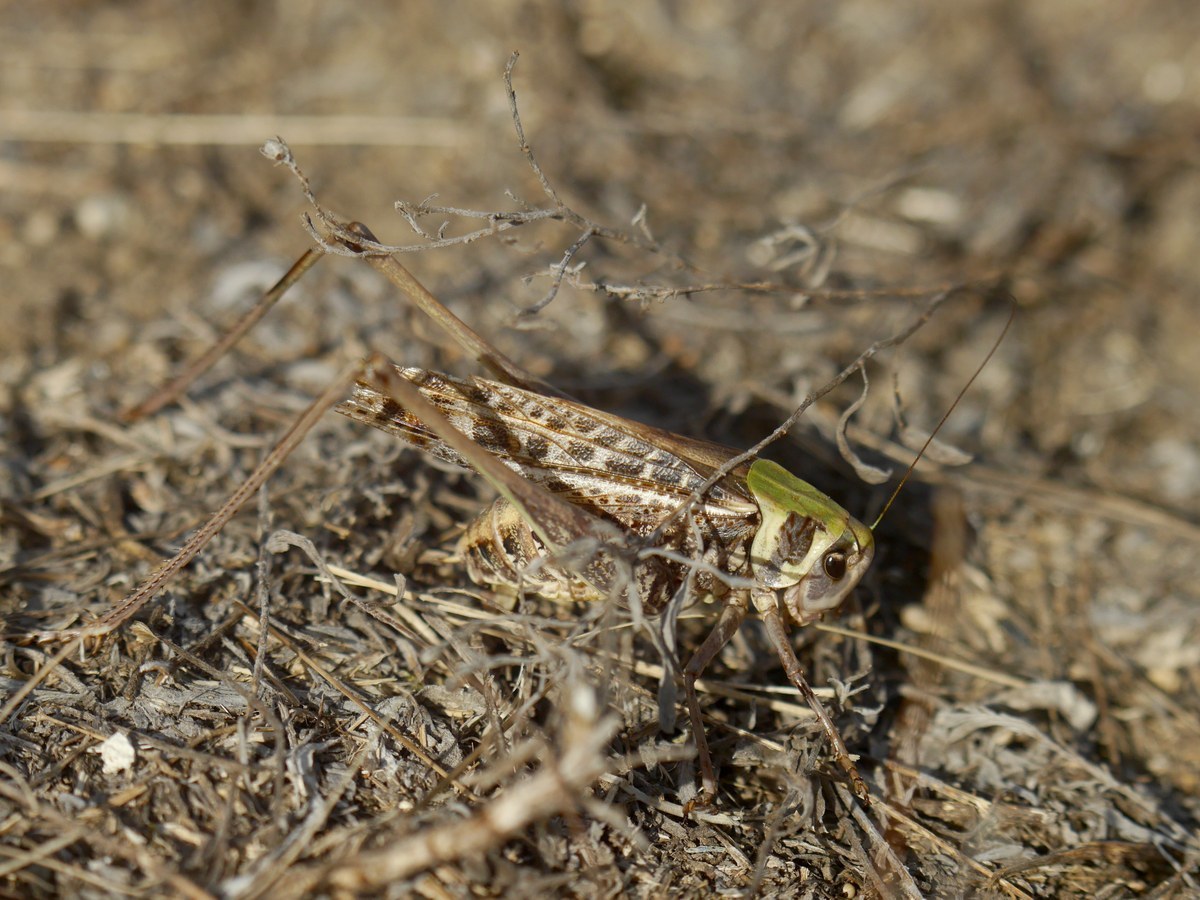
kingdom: Animalia
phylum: Arthropoda
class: Insecta
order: Orthoptera
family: Tettigoniidae
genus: Decticus
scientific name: Decticus verrucivorus
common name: Wart-biter
